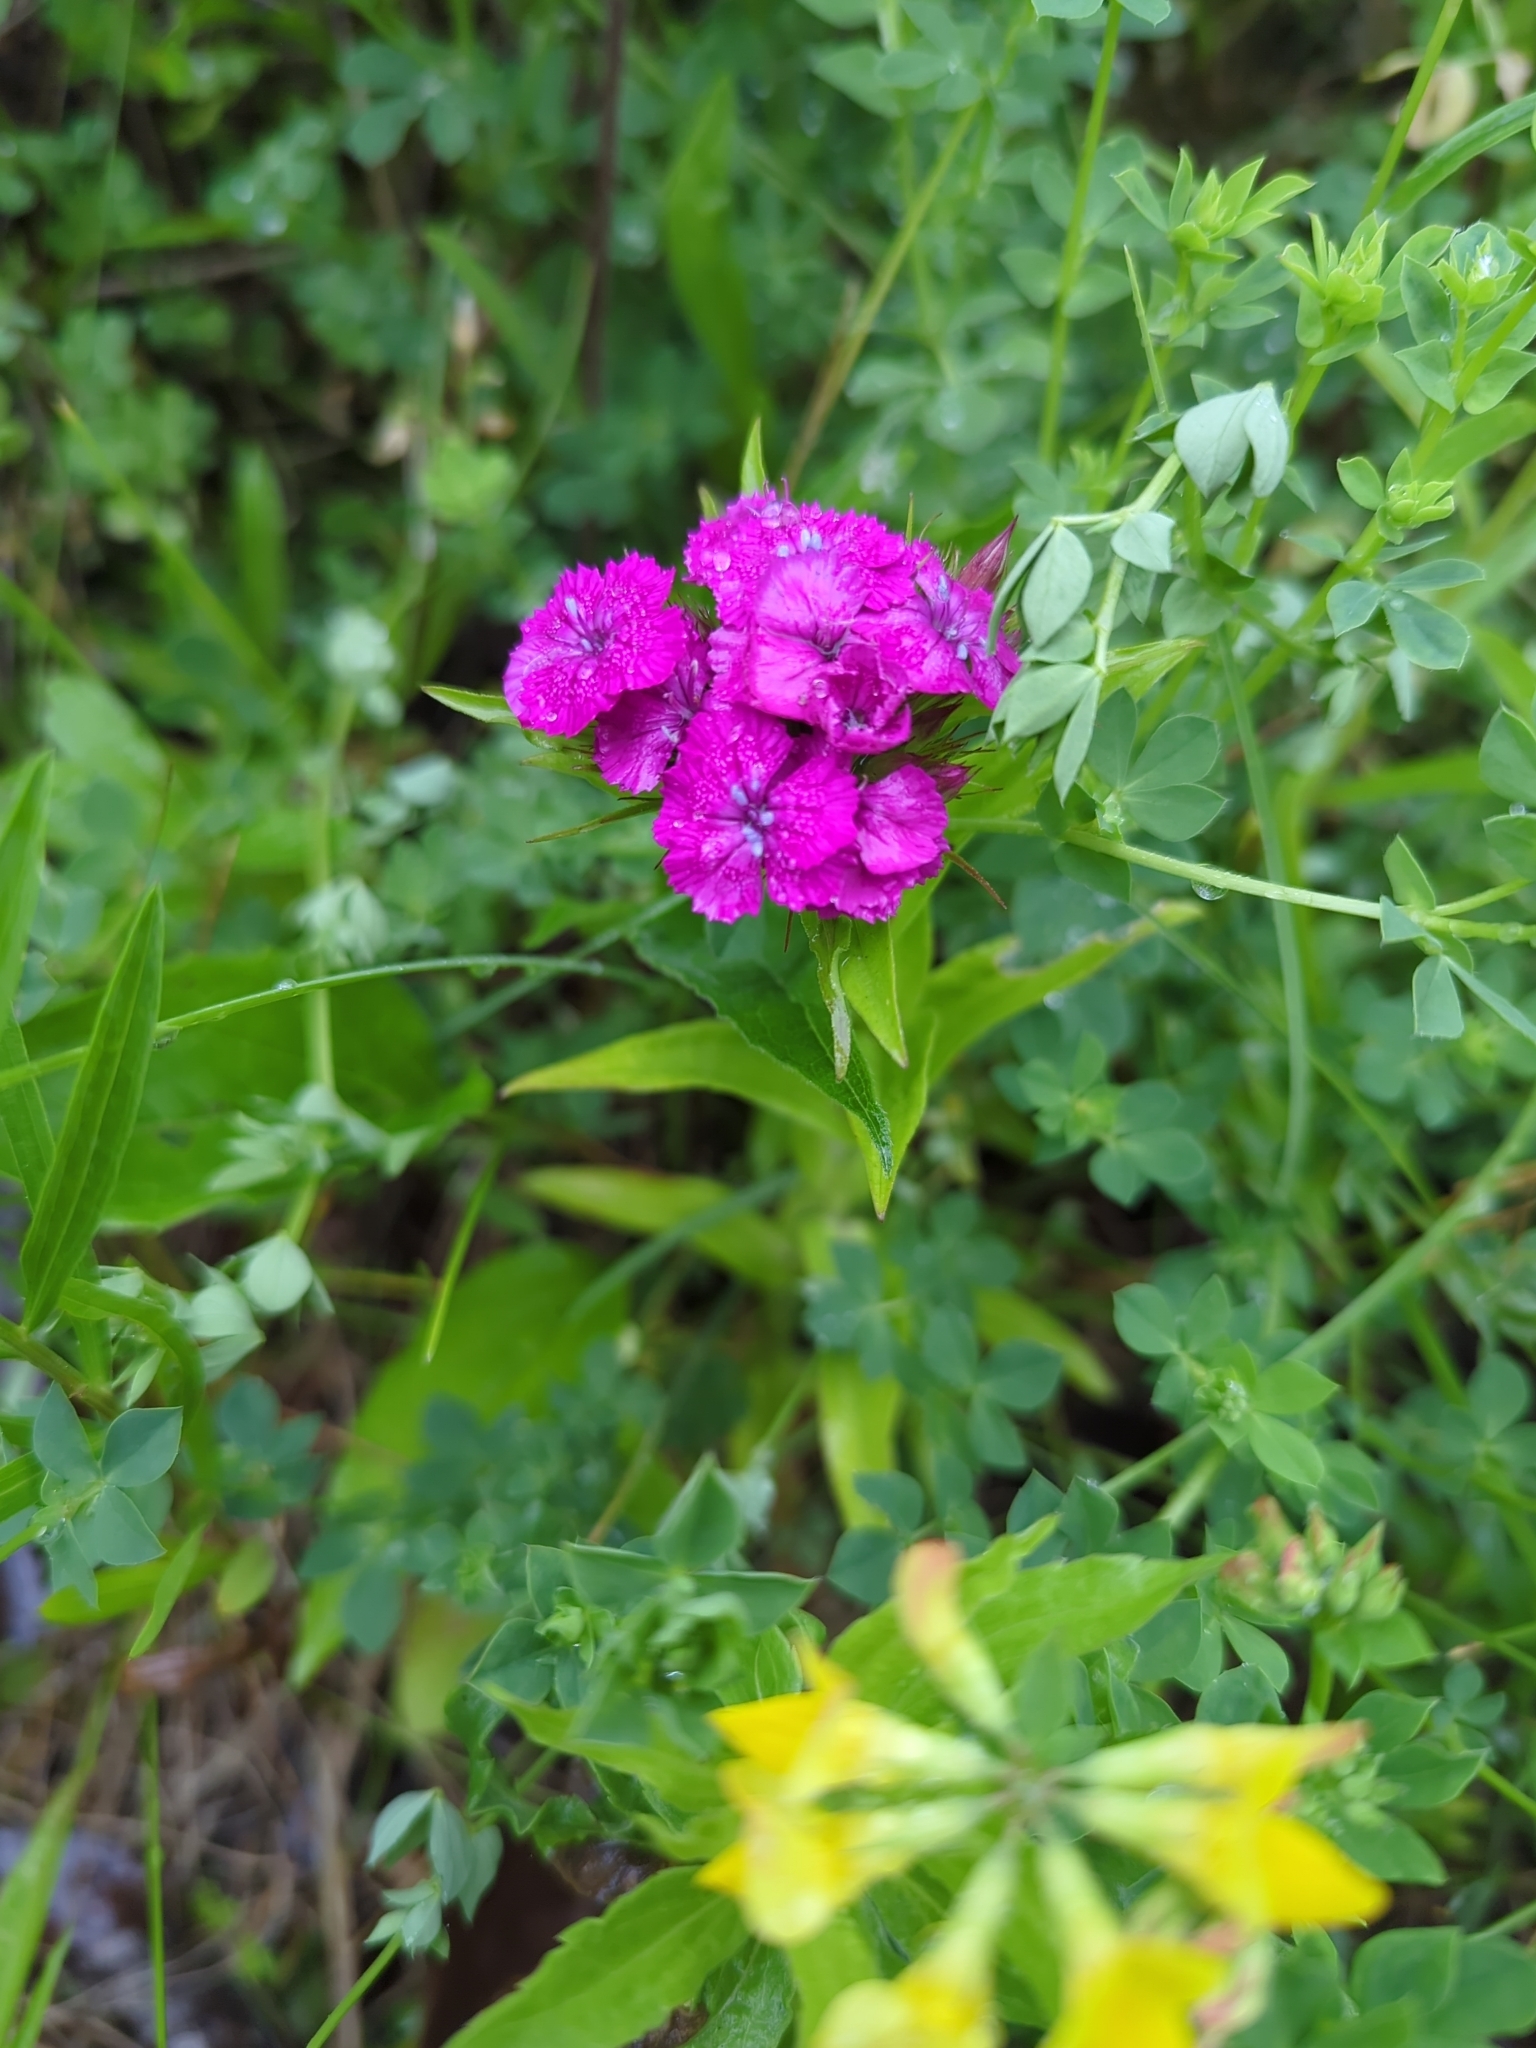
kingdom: Plantae
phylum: Tracheophyta
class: Magnoliopsida
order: Caryophyllales
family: Caryophyllaceae
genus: Dianthus
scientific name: Dianthus barbatus
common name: Sweet-william
